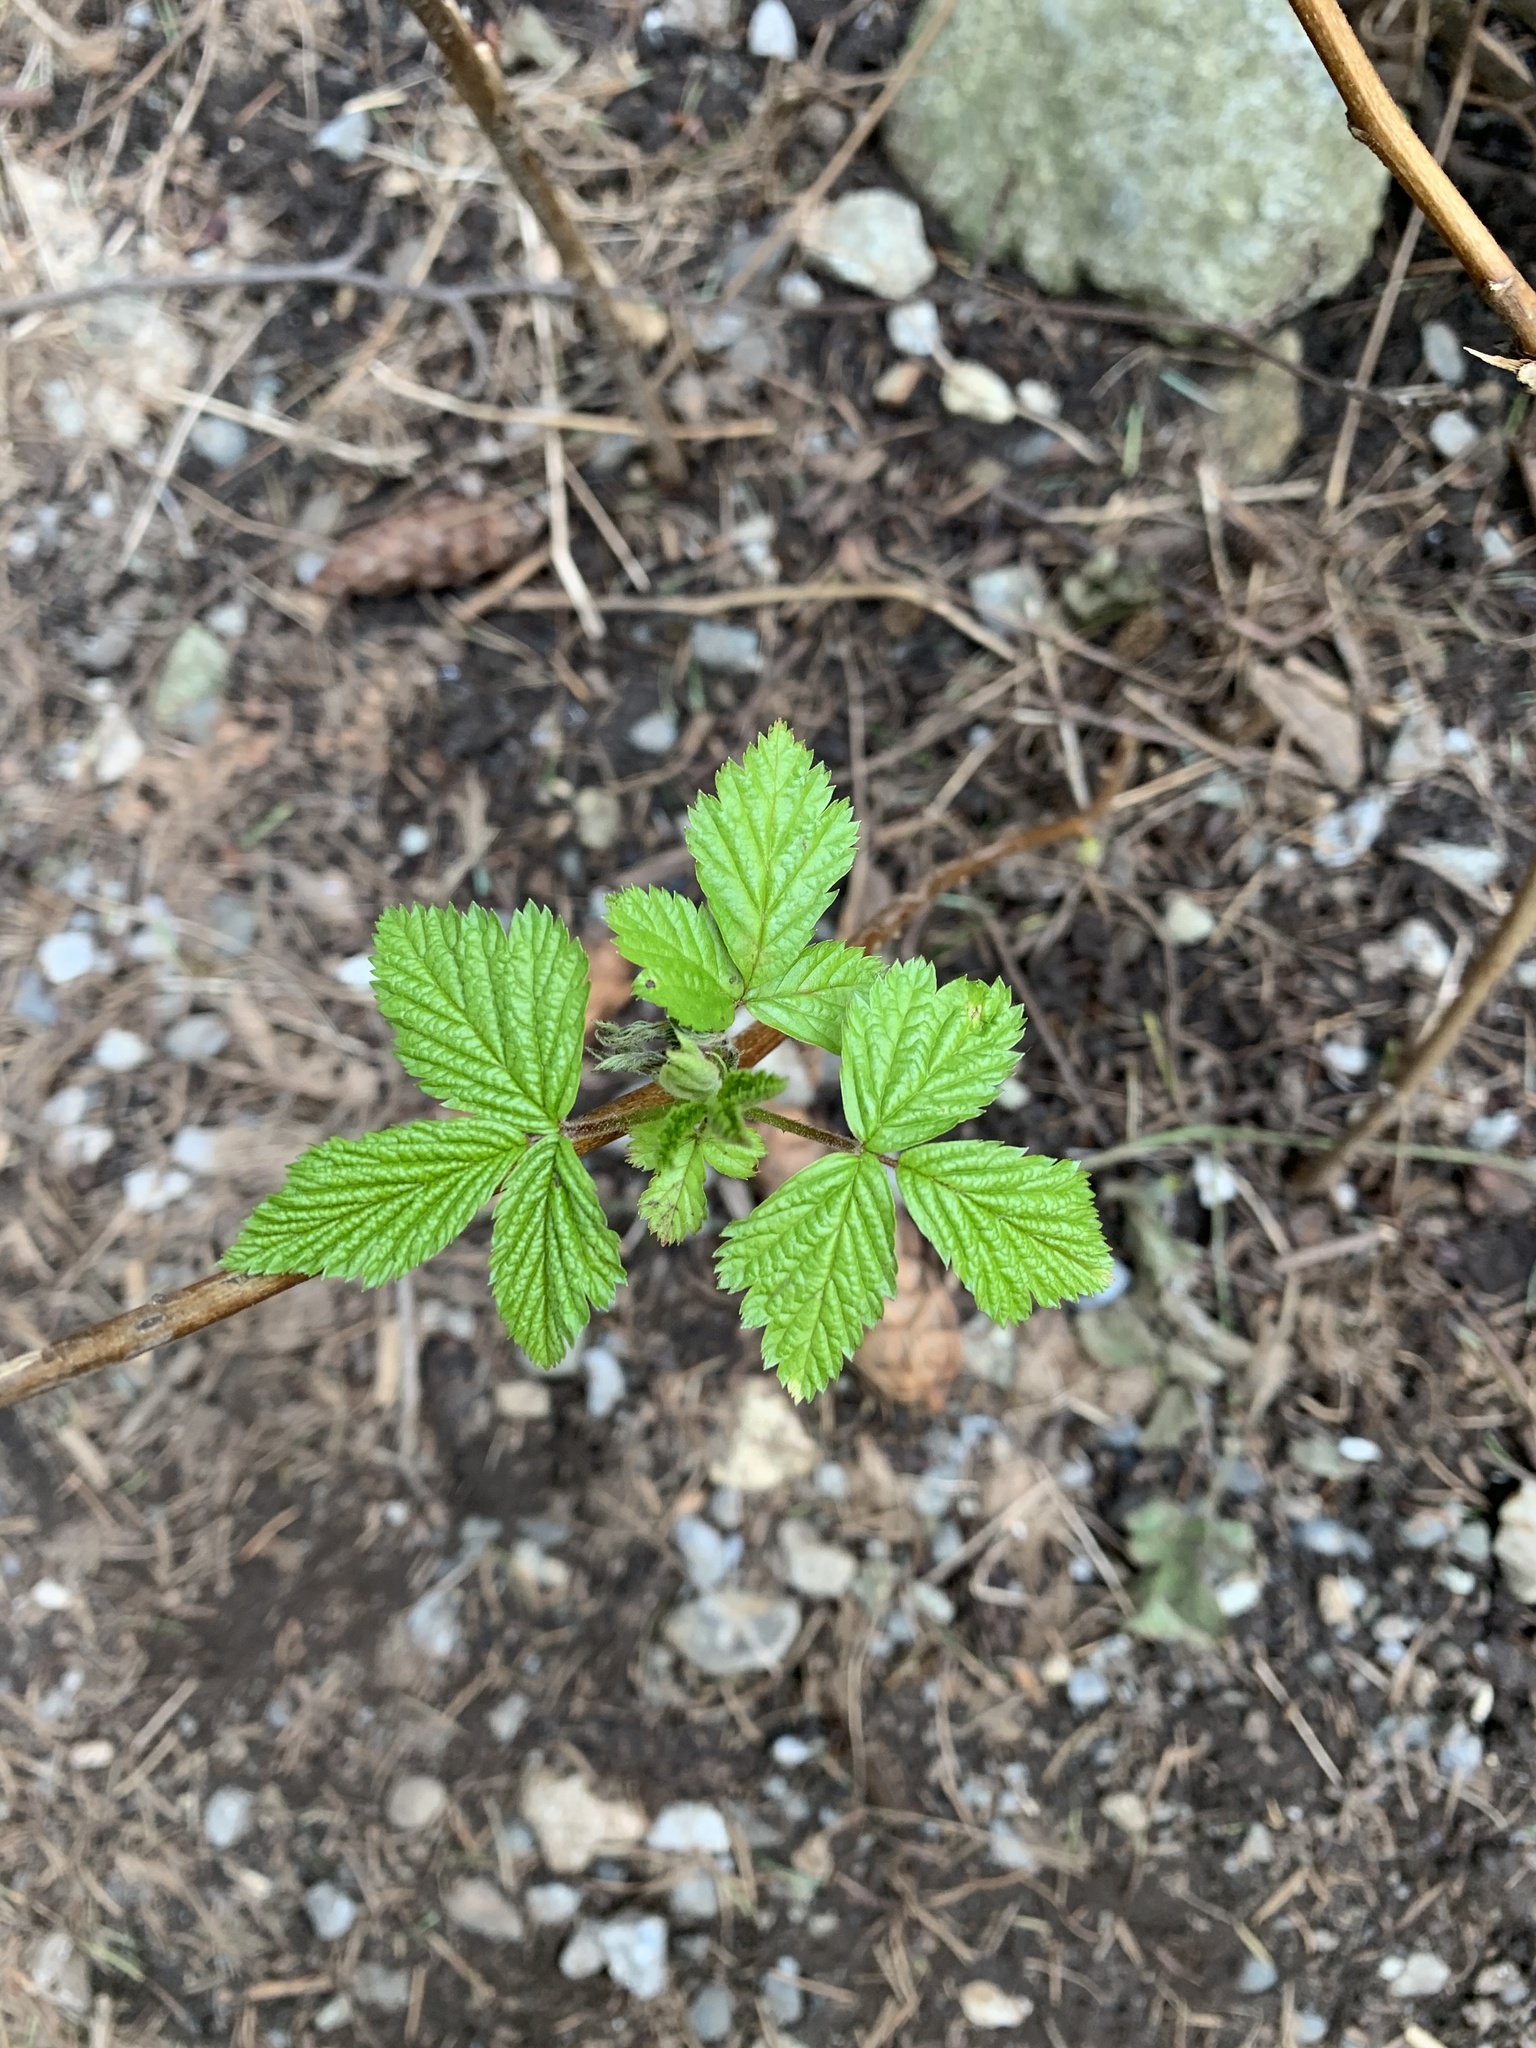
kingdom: Plantae
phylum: Tracheophyta
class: Magnoliopsida
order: Rosales
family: Rosaceae
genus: Rubus
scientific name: Rubus spectabilis
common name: Salmonberry
